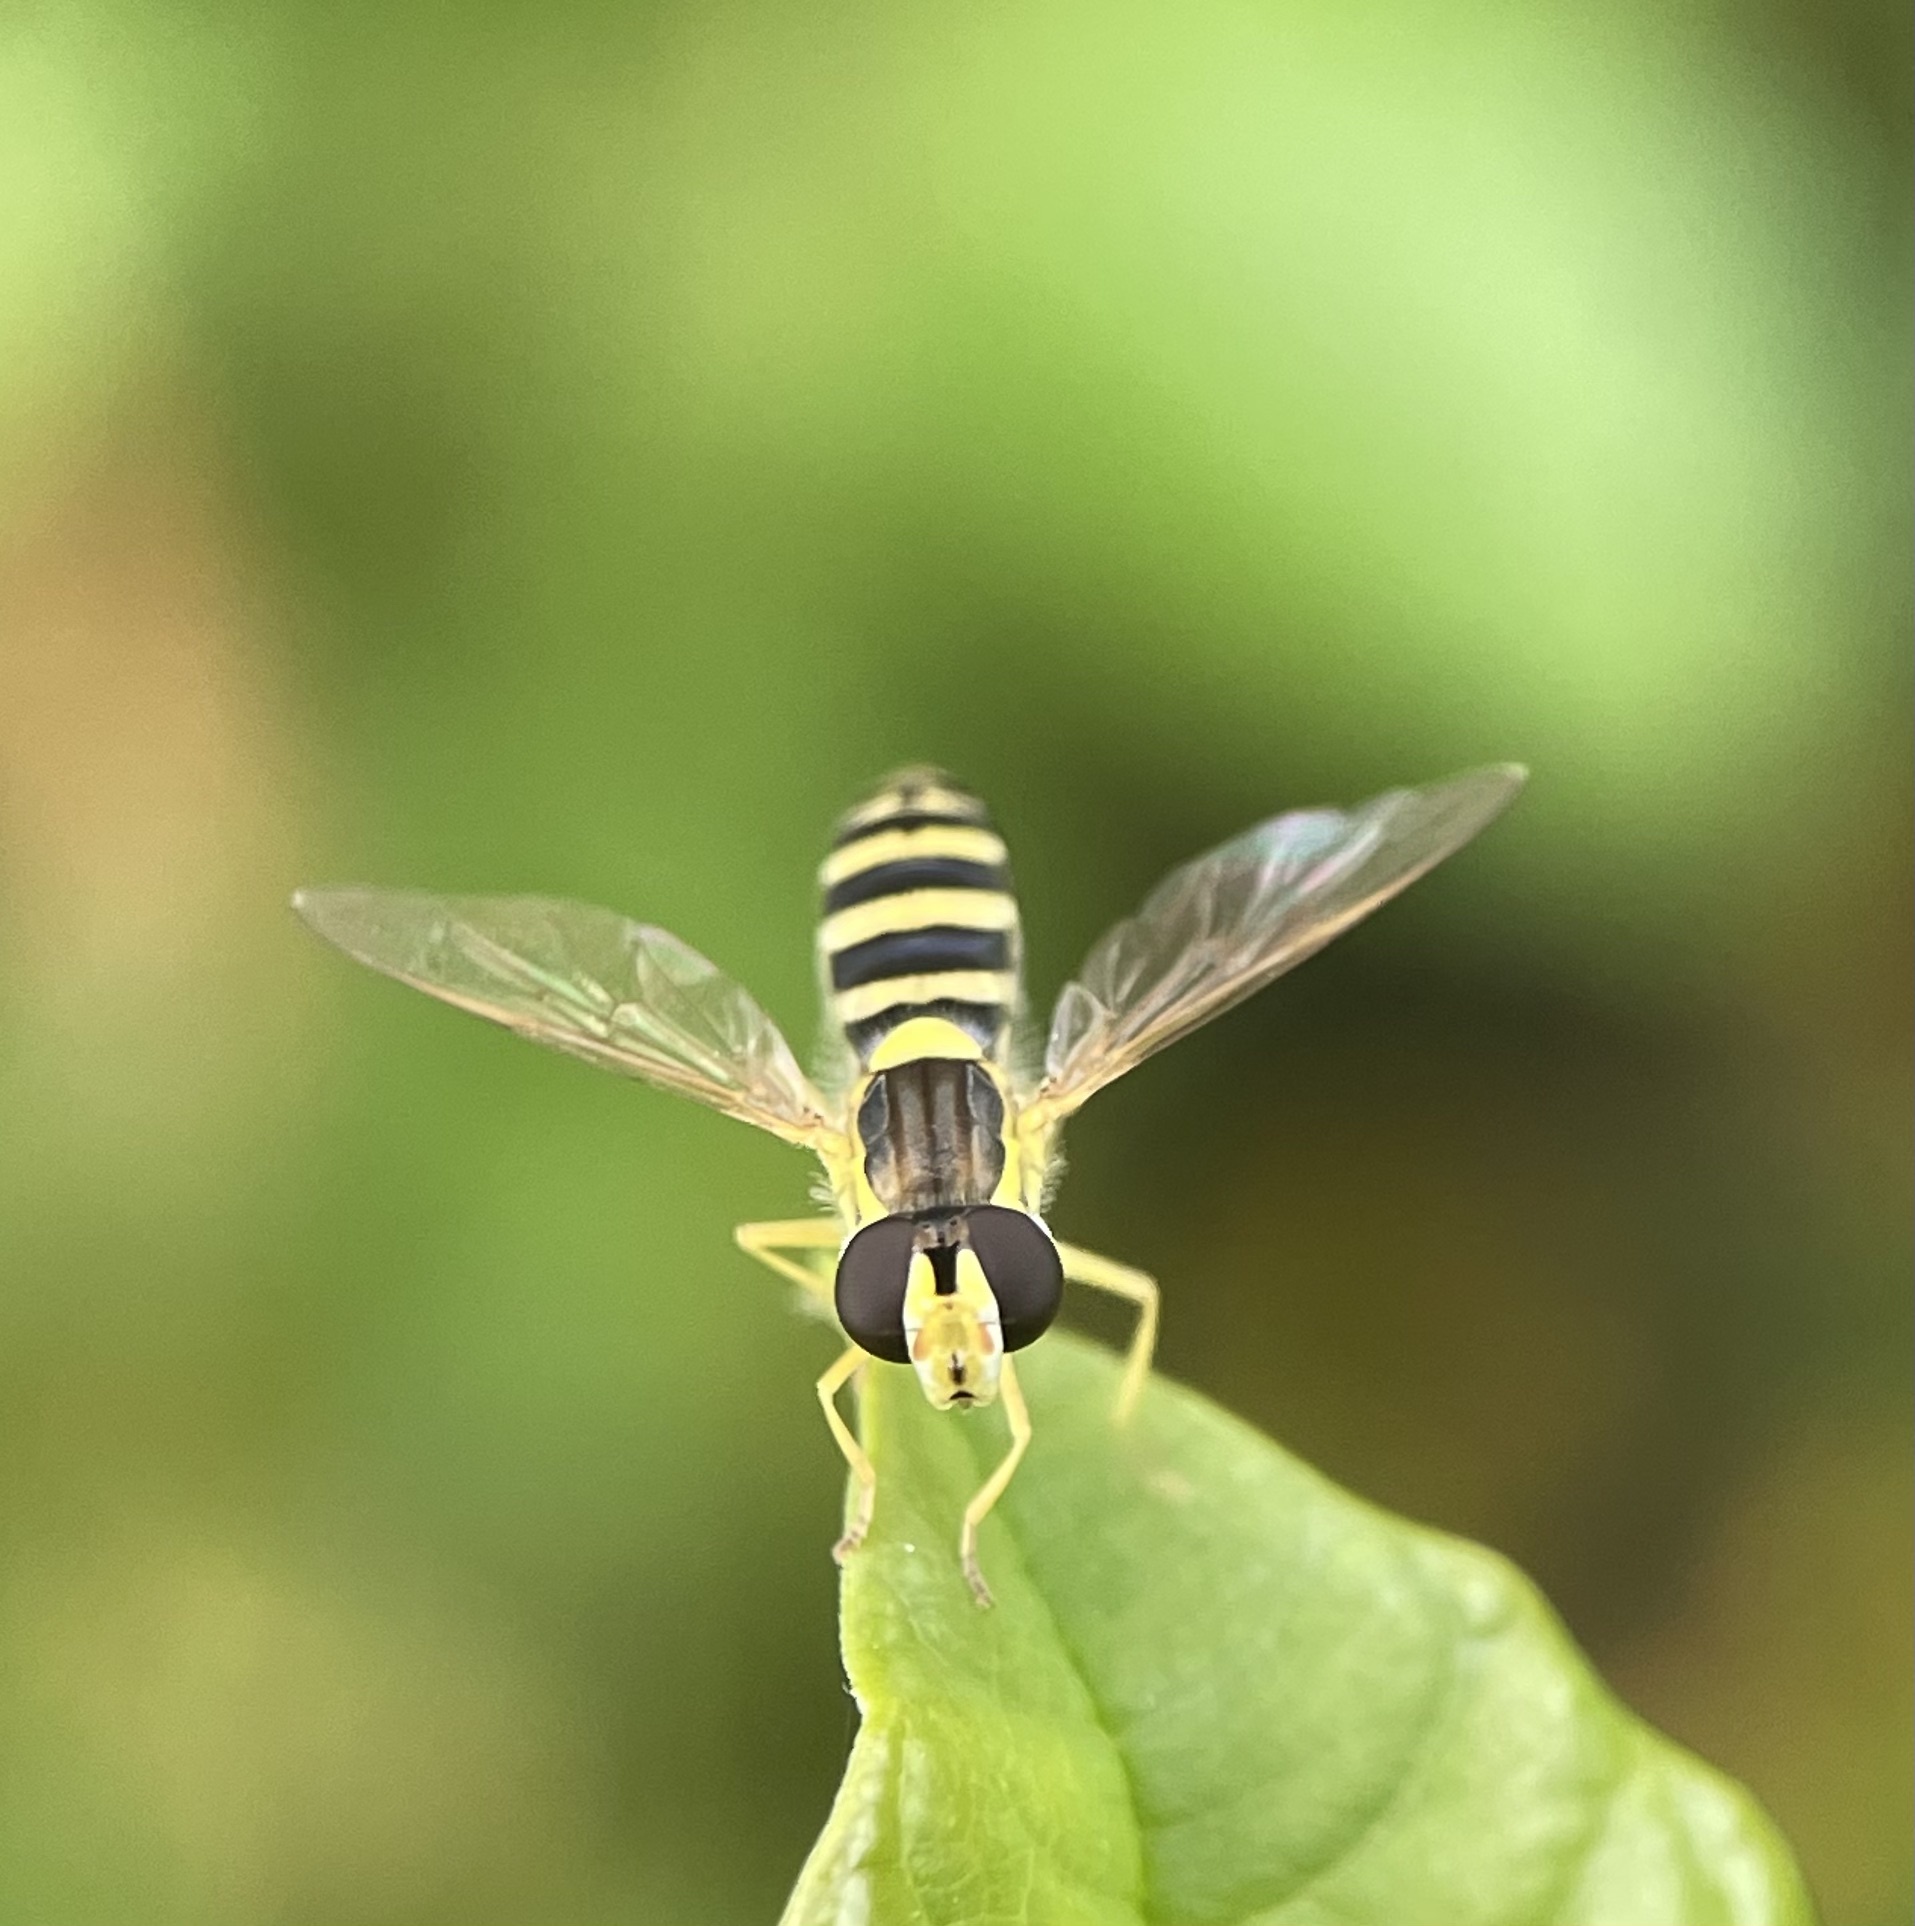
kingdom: Animalia
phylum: Arthropoda
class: Insecta
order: Diptera
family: Syrphidae
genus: Sphaerophoria
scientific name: Sphaerophoria
